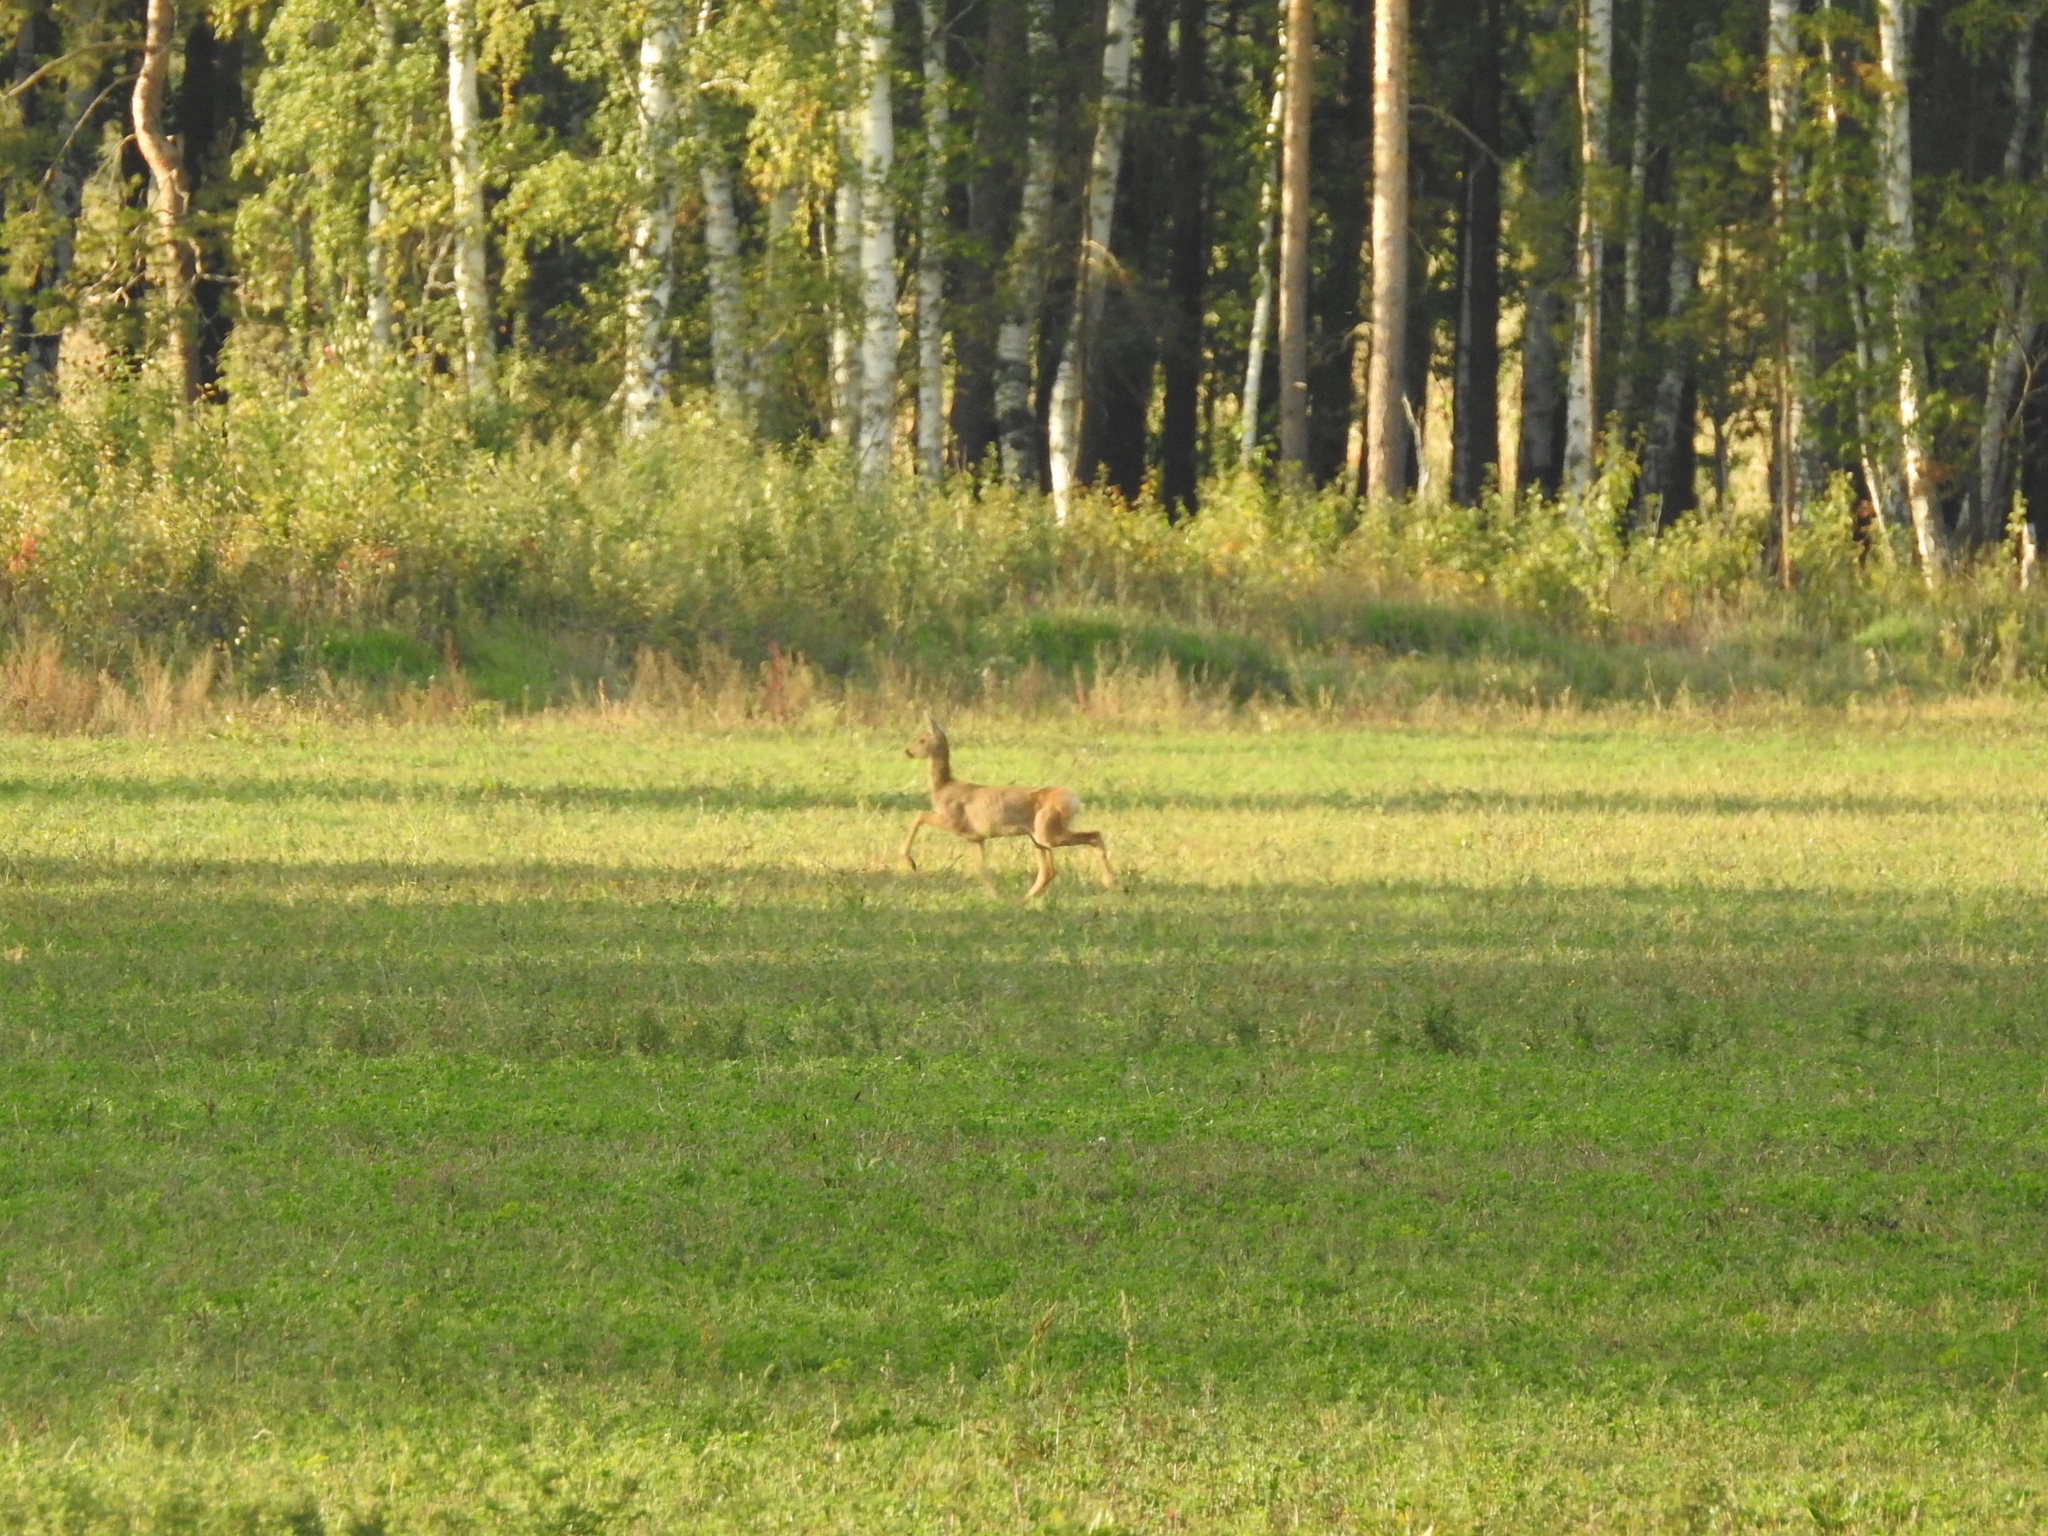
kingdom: Animalia
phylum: Chordata
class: Mammalia
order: Artiodactyla
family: Cervidae
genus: Capreolus
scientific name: Capreolus pygargus
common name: Siberian roe
